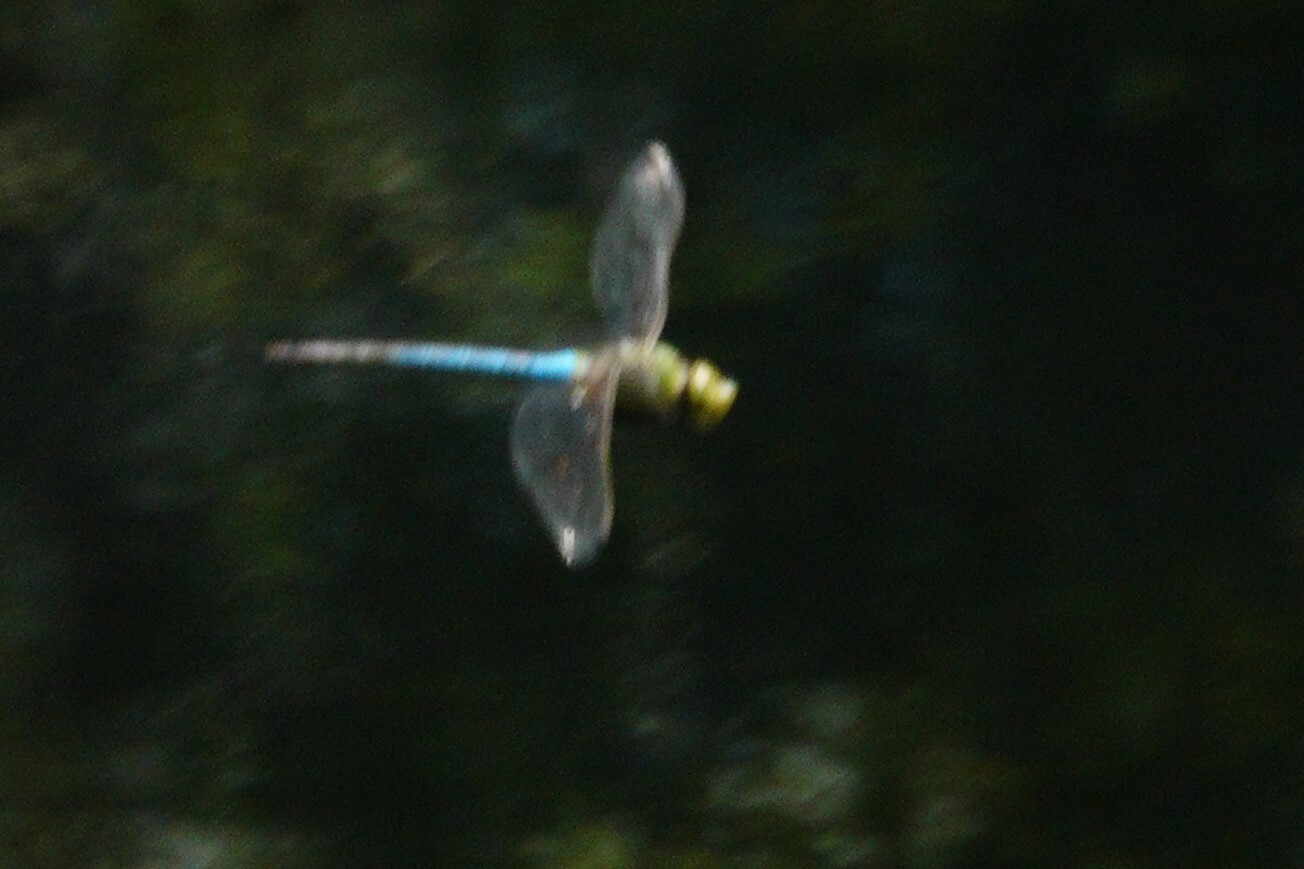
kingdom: Animalia
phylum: Arthropoda
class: Insecta
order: Odonata
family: Aeshnidae
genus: Anax
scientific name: Anax junius
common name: Common green darner
